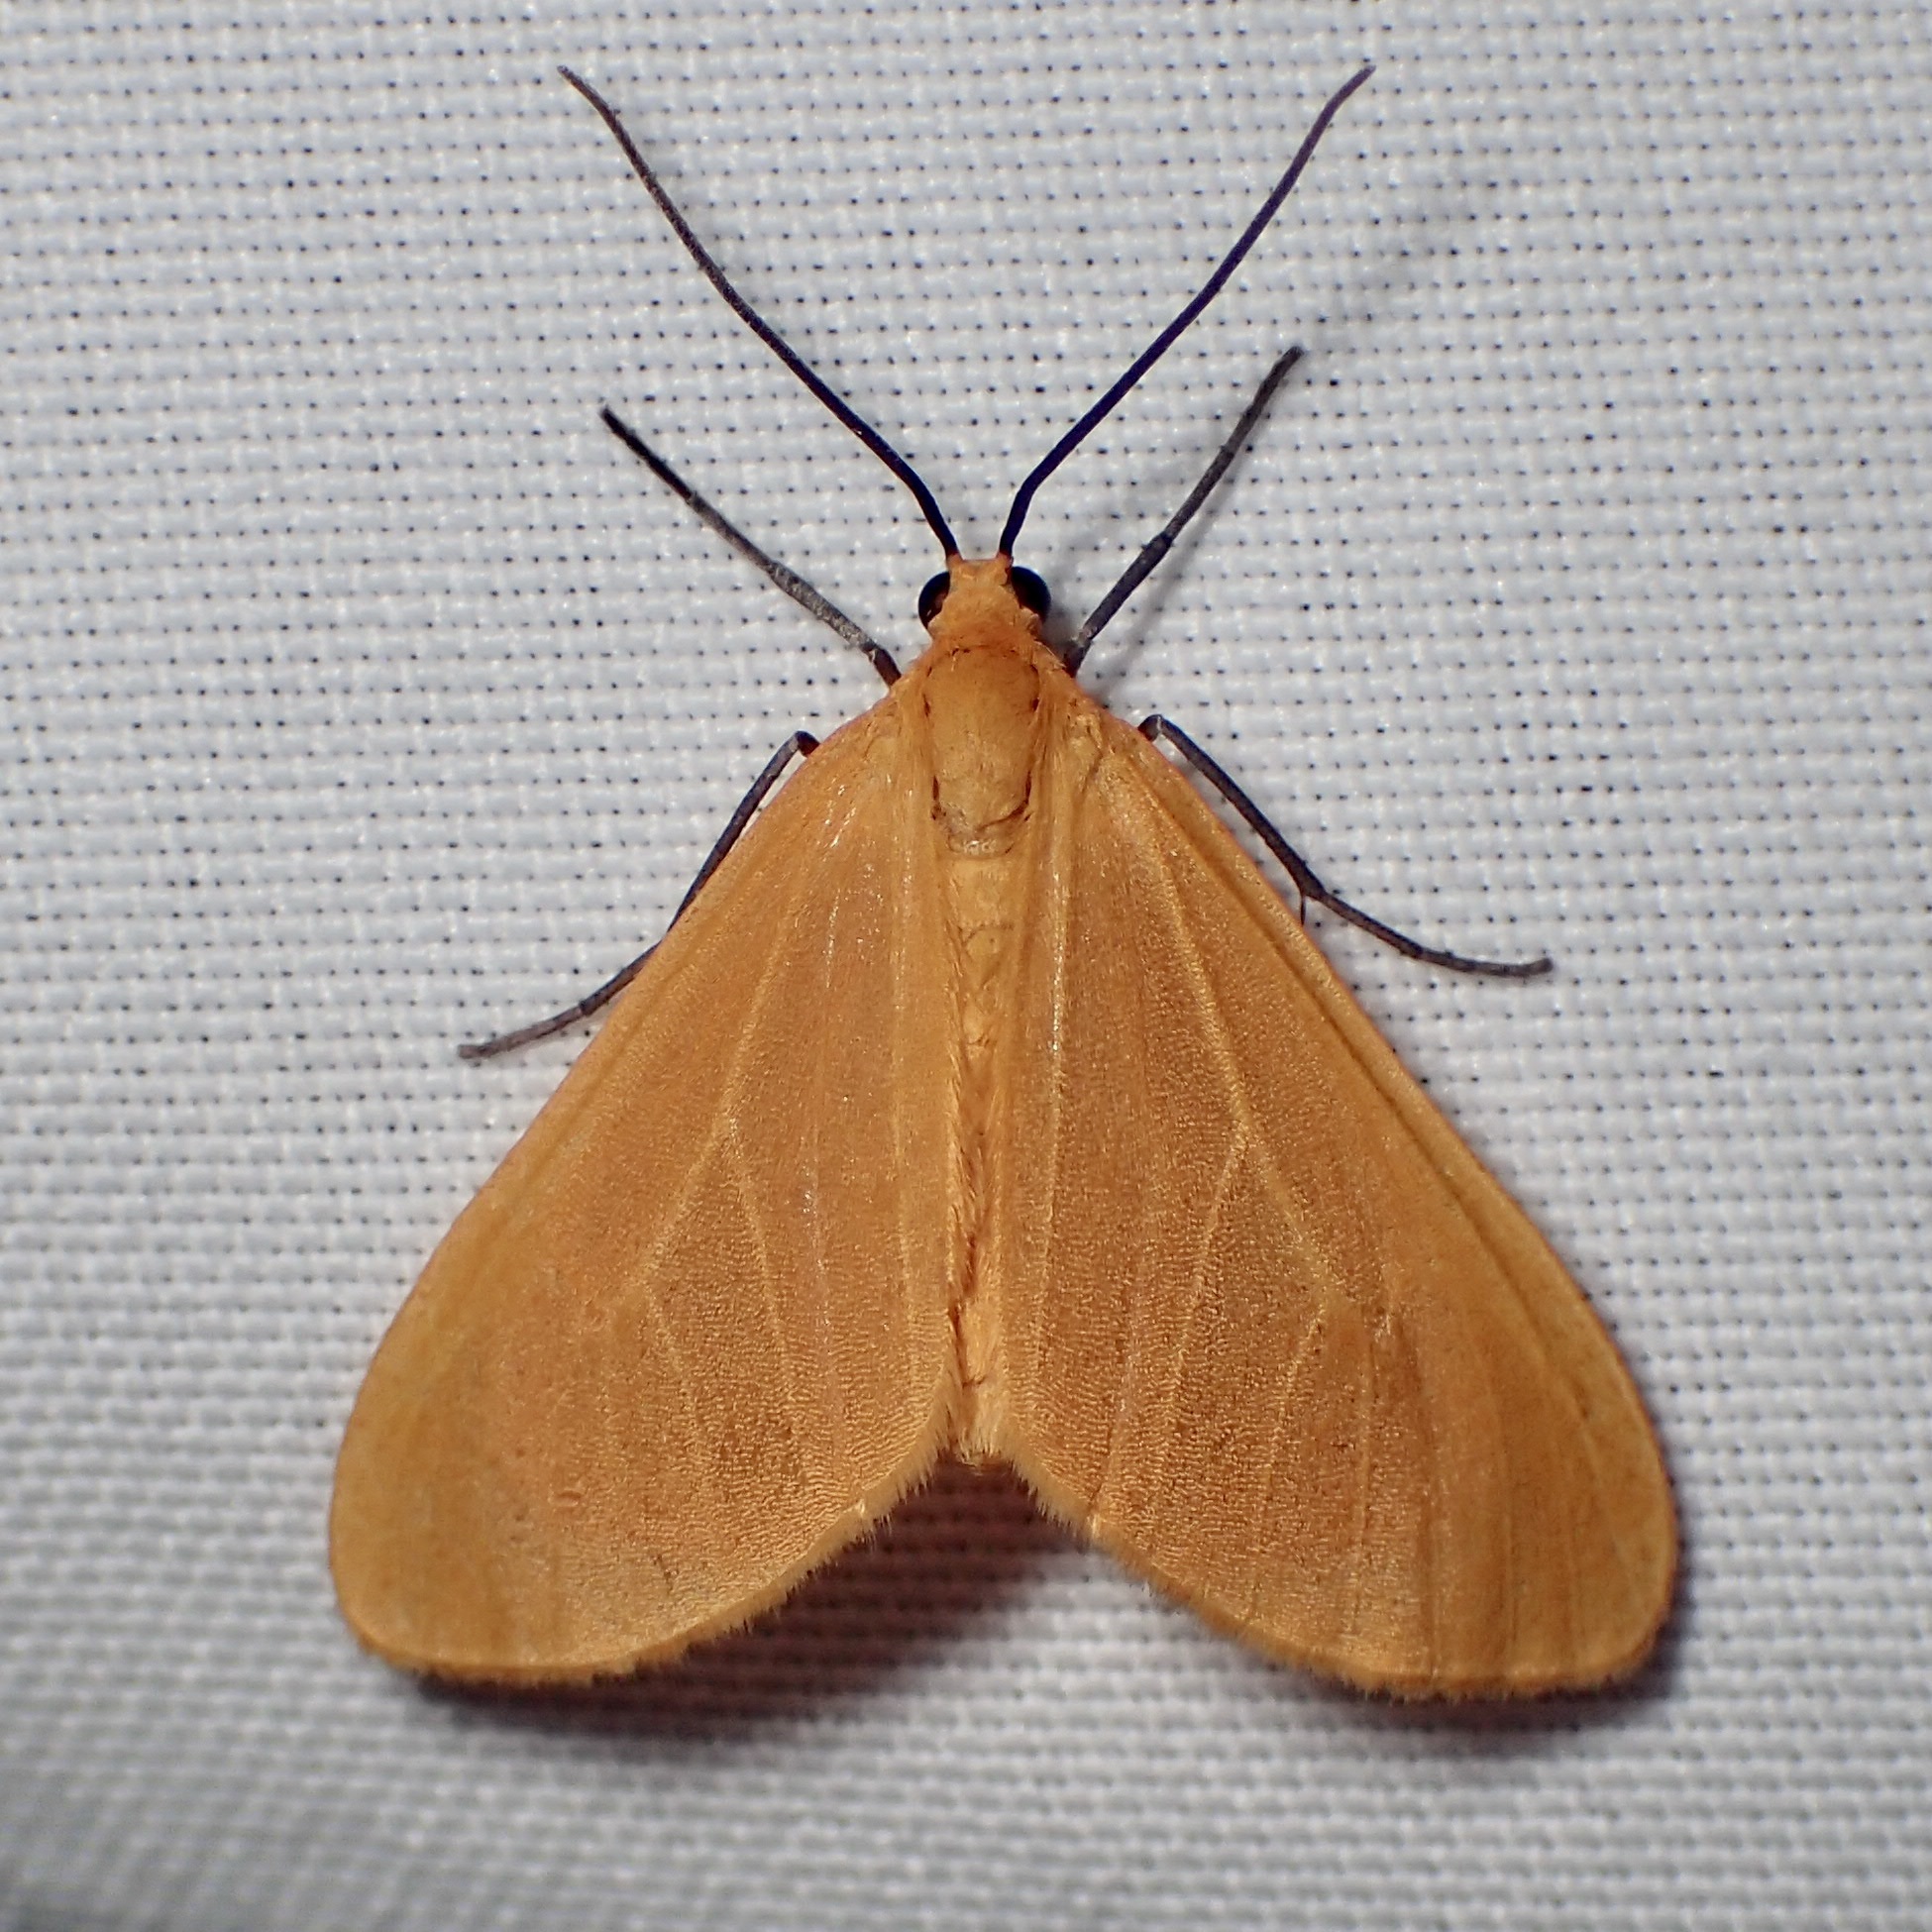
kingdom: Animalia
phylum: Arthropoda
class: Insecta
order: Lepidoptera
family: Geometridae
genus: Eubaphe
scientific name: Eubaphe unicolor
